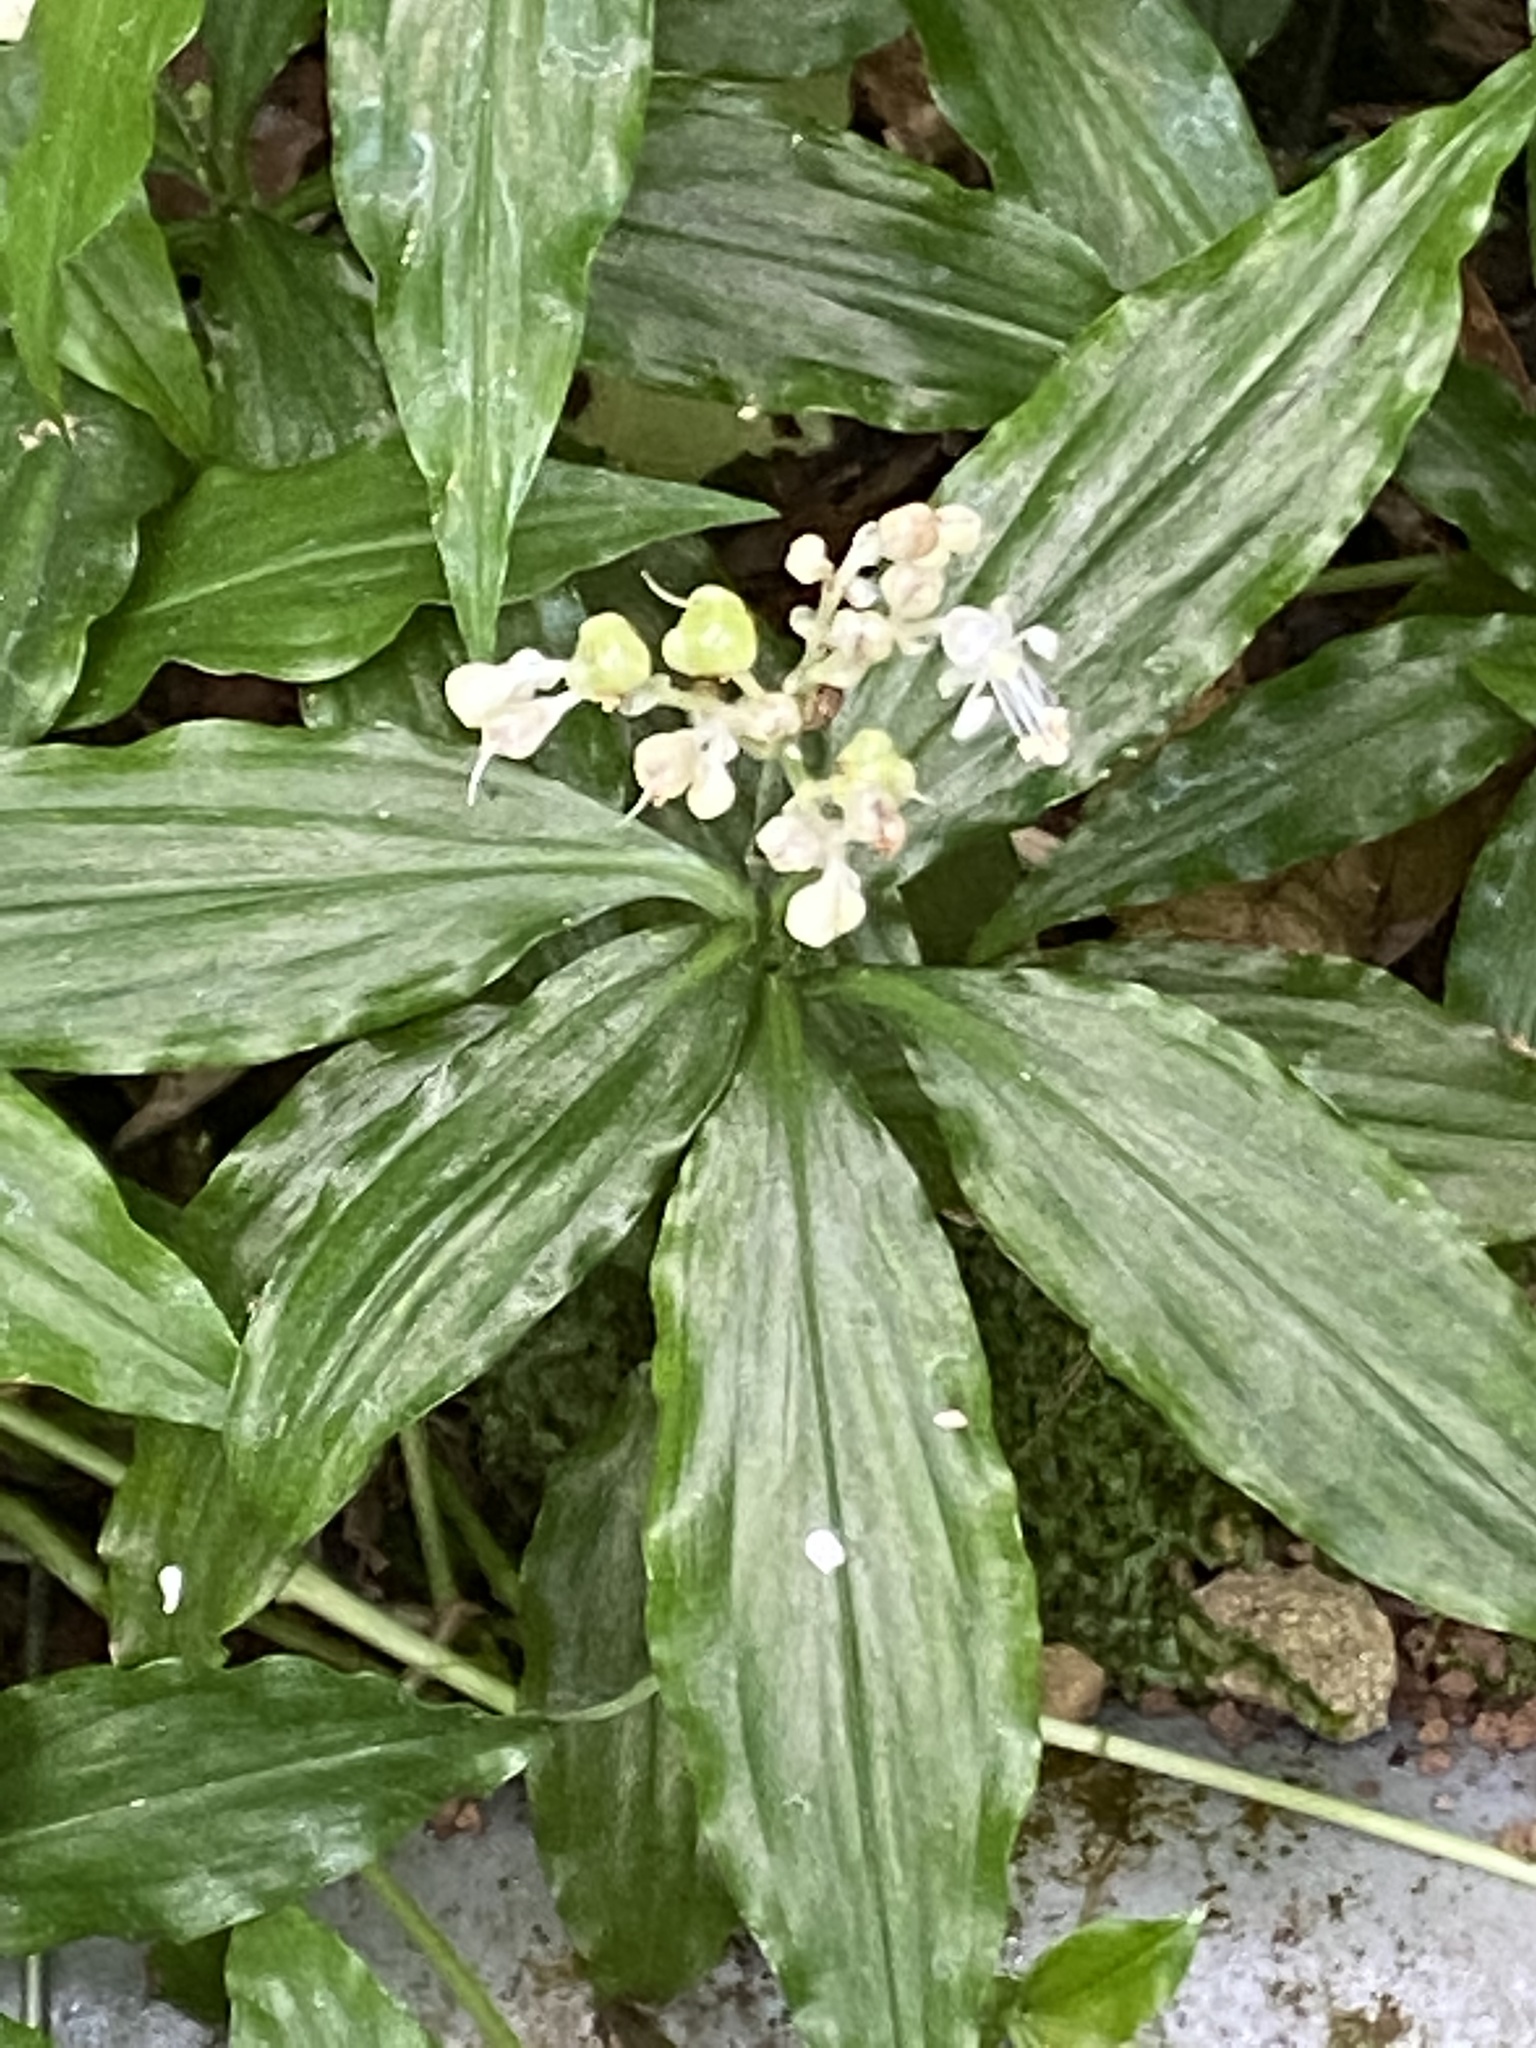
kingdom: Plantae
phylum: Tracheophyta
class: Liliopsida
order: Commelinales
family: Commelinaceae
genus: Pollia
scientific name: Pollia japonica
